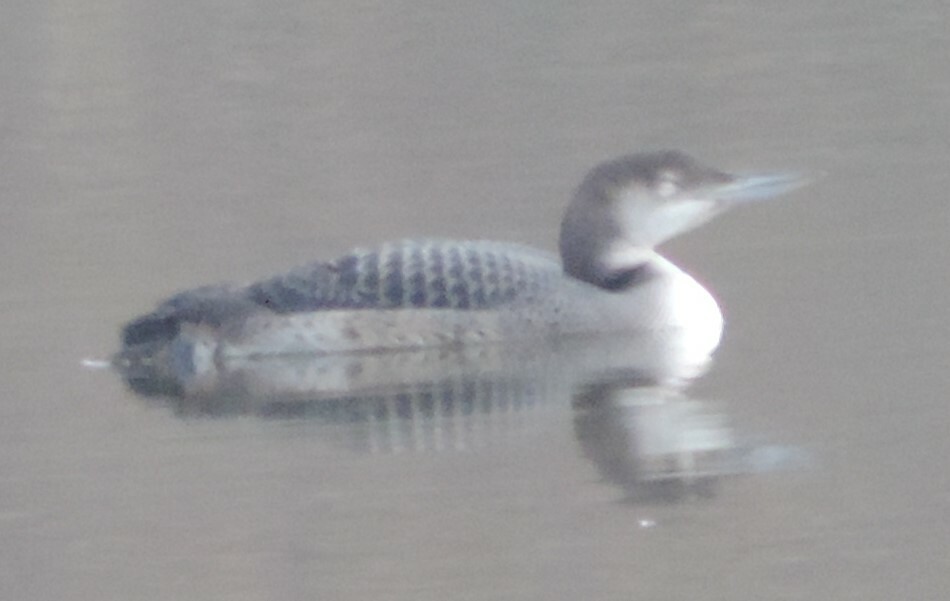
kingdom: Animalia
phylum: Chordata
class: Aves
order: Gaviiformes
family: Gaviidae
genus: Gavia
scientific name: Gavia immer
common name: Common loon
